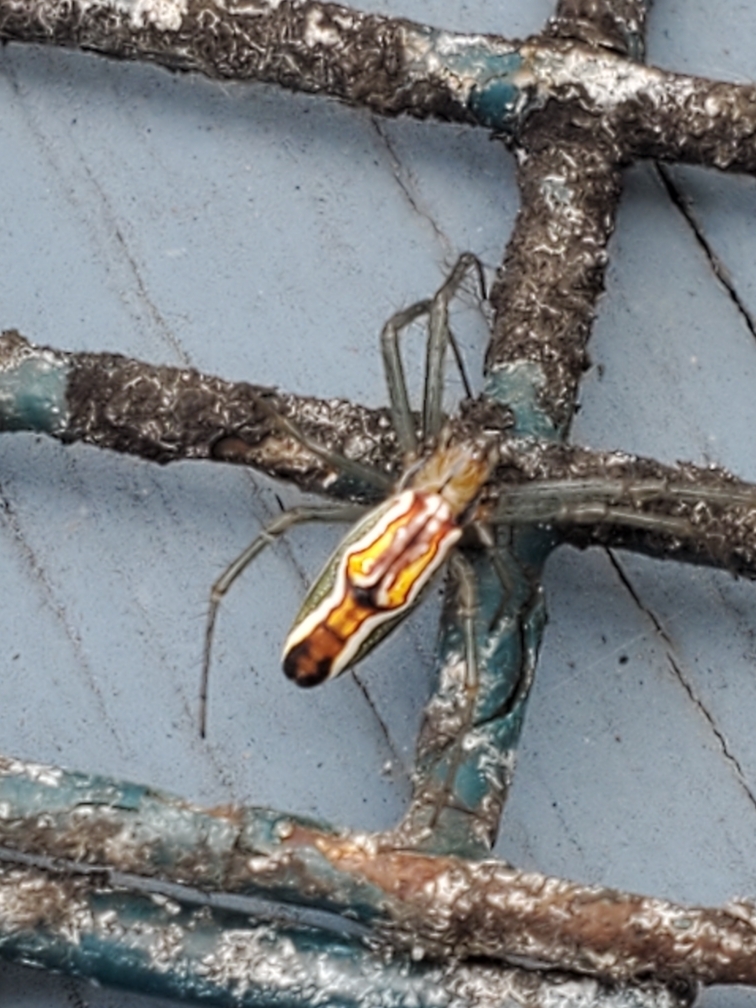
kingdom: Animalia
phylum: Arthropoda
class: Arachnida
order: Araneae
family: Araneidae
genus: Mecynogea
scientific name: Mecynogea lemniscata
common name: Orb weavers
